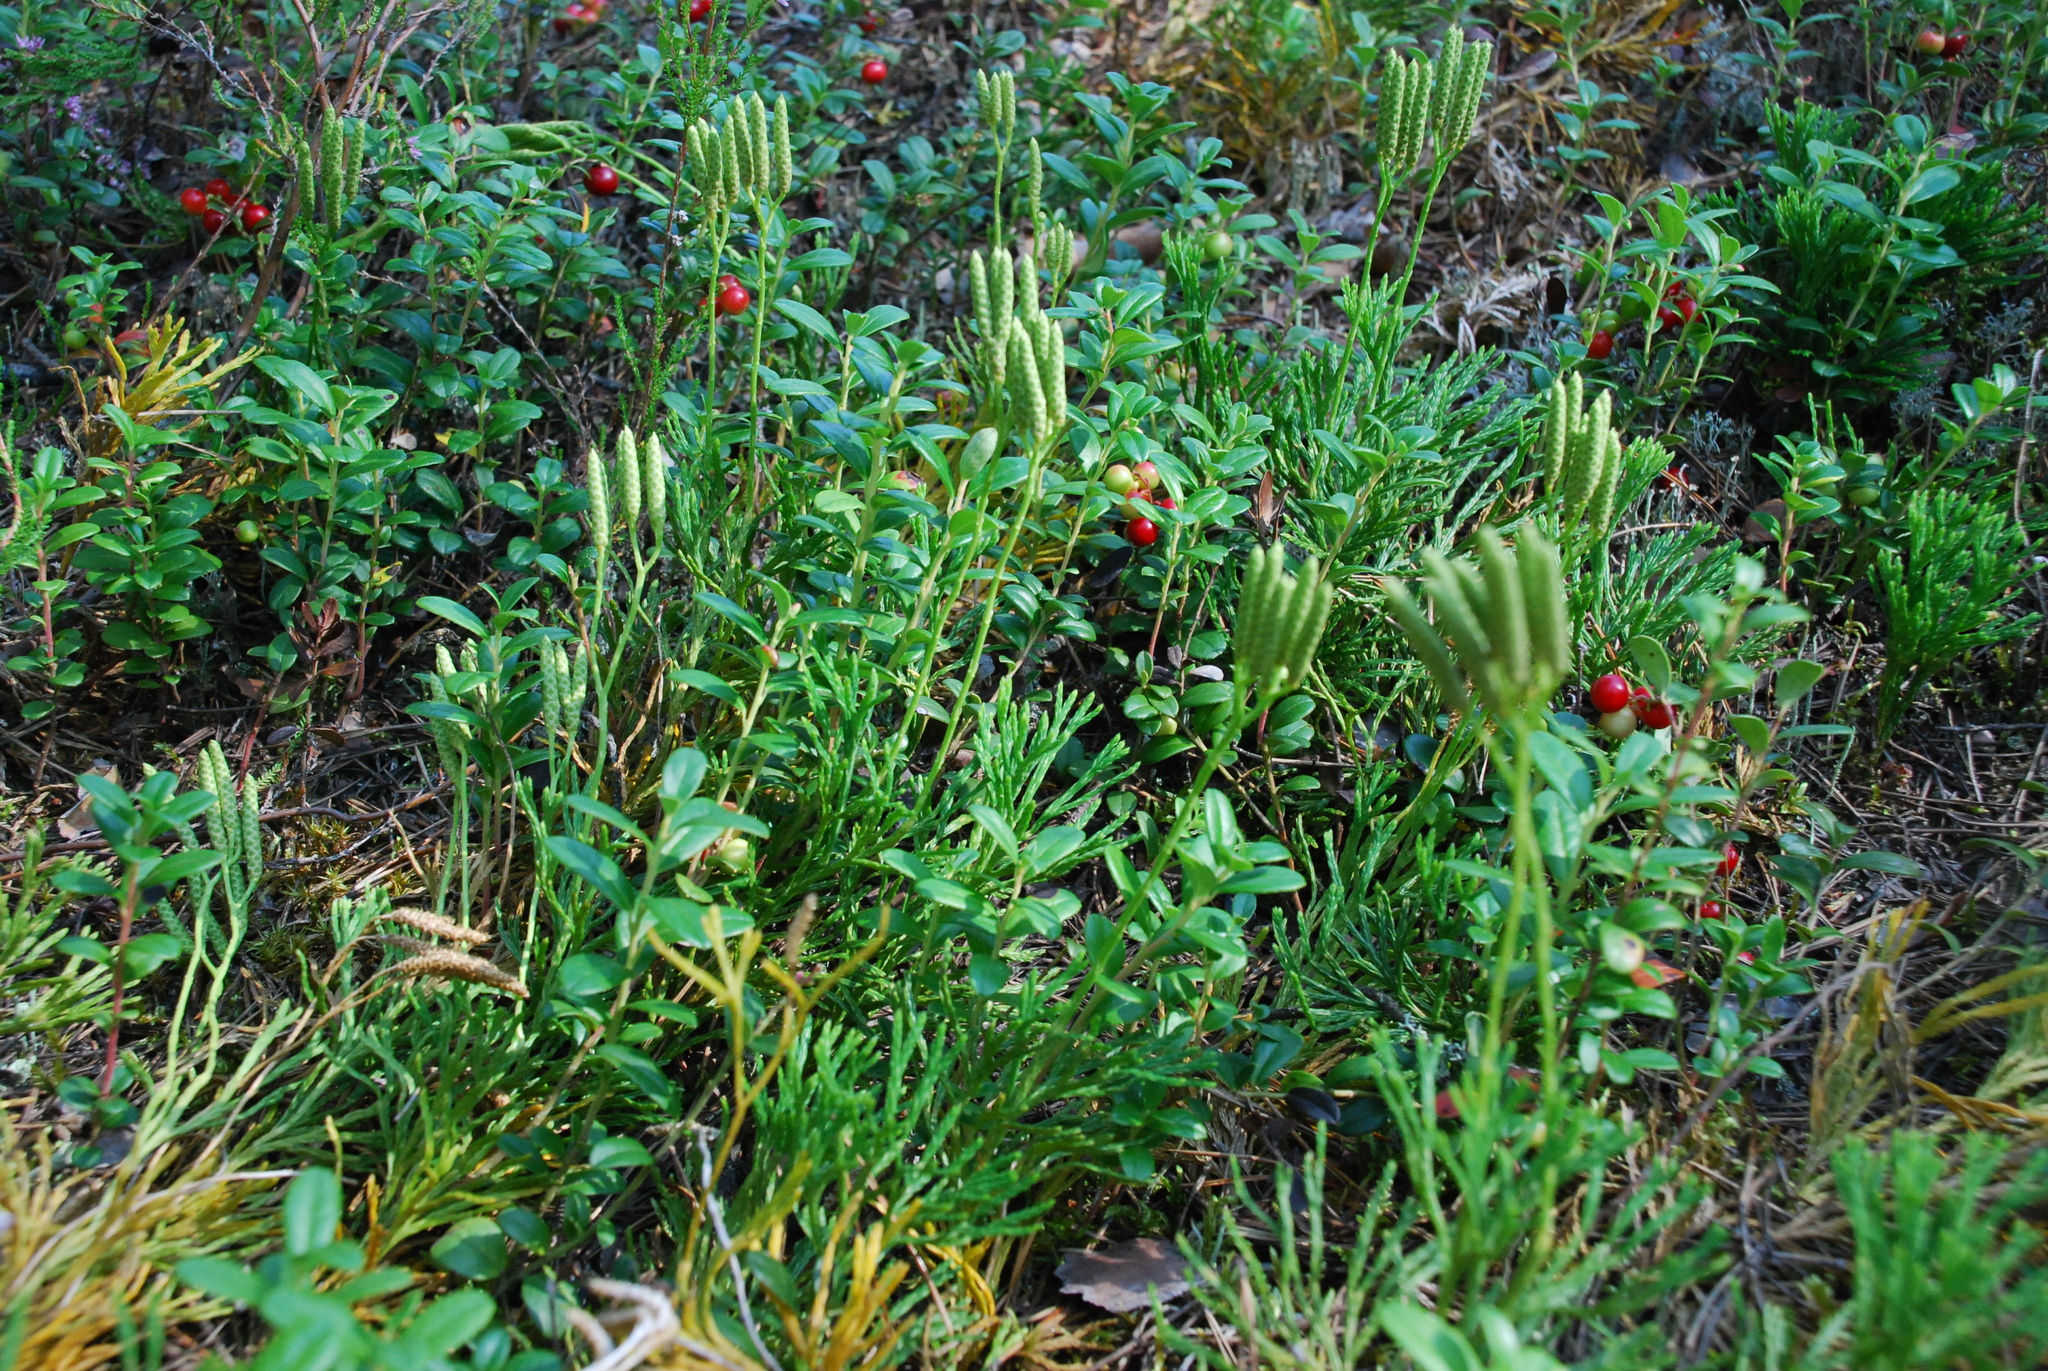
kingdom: Plantae
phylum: Tracheophyta
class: Lycopodiopsida
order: Lycopodiales
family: Lycopodiaceae
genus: Diphasiastrum
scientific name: Diphasiastrum complanatum
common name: Northern running-pine
